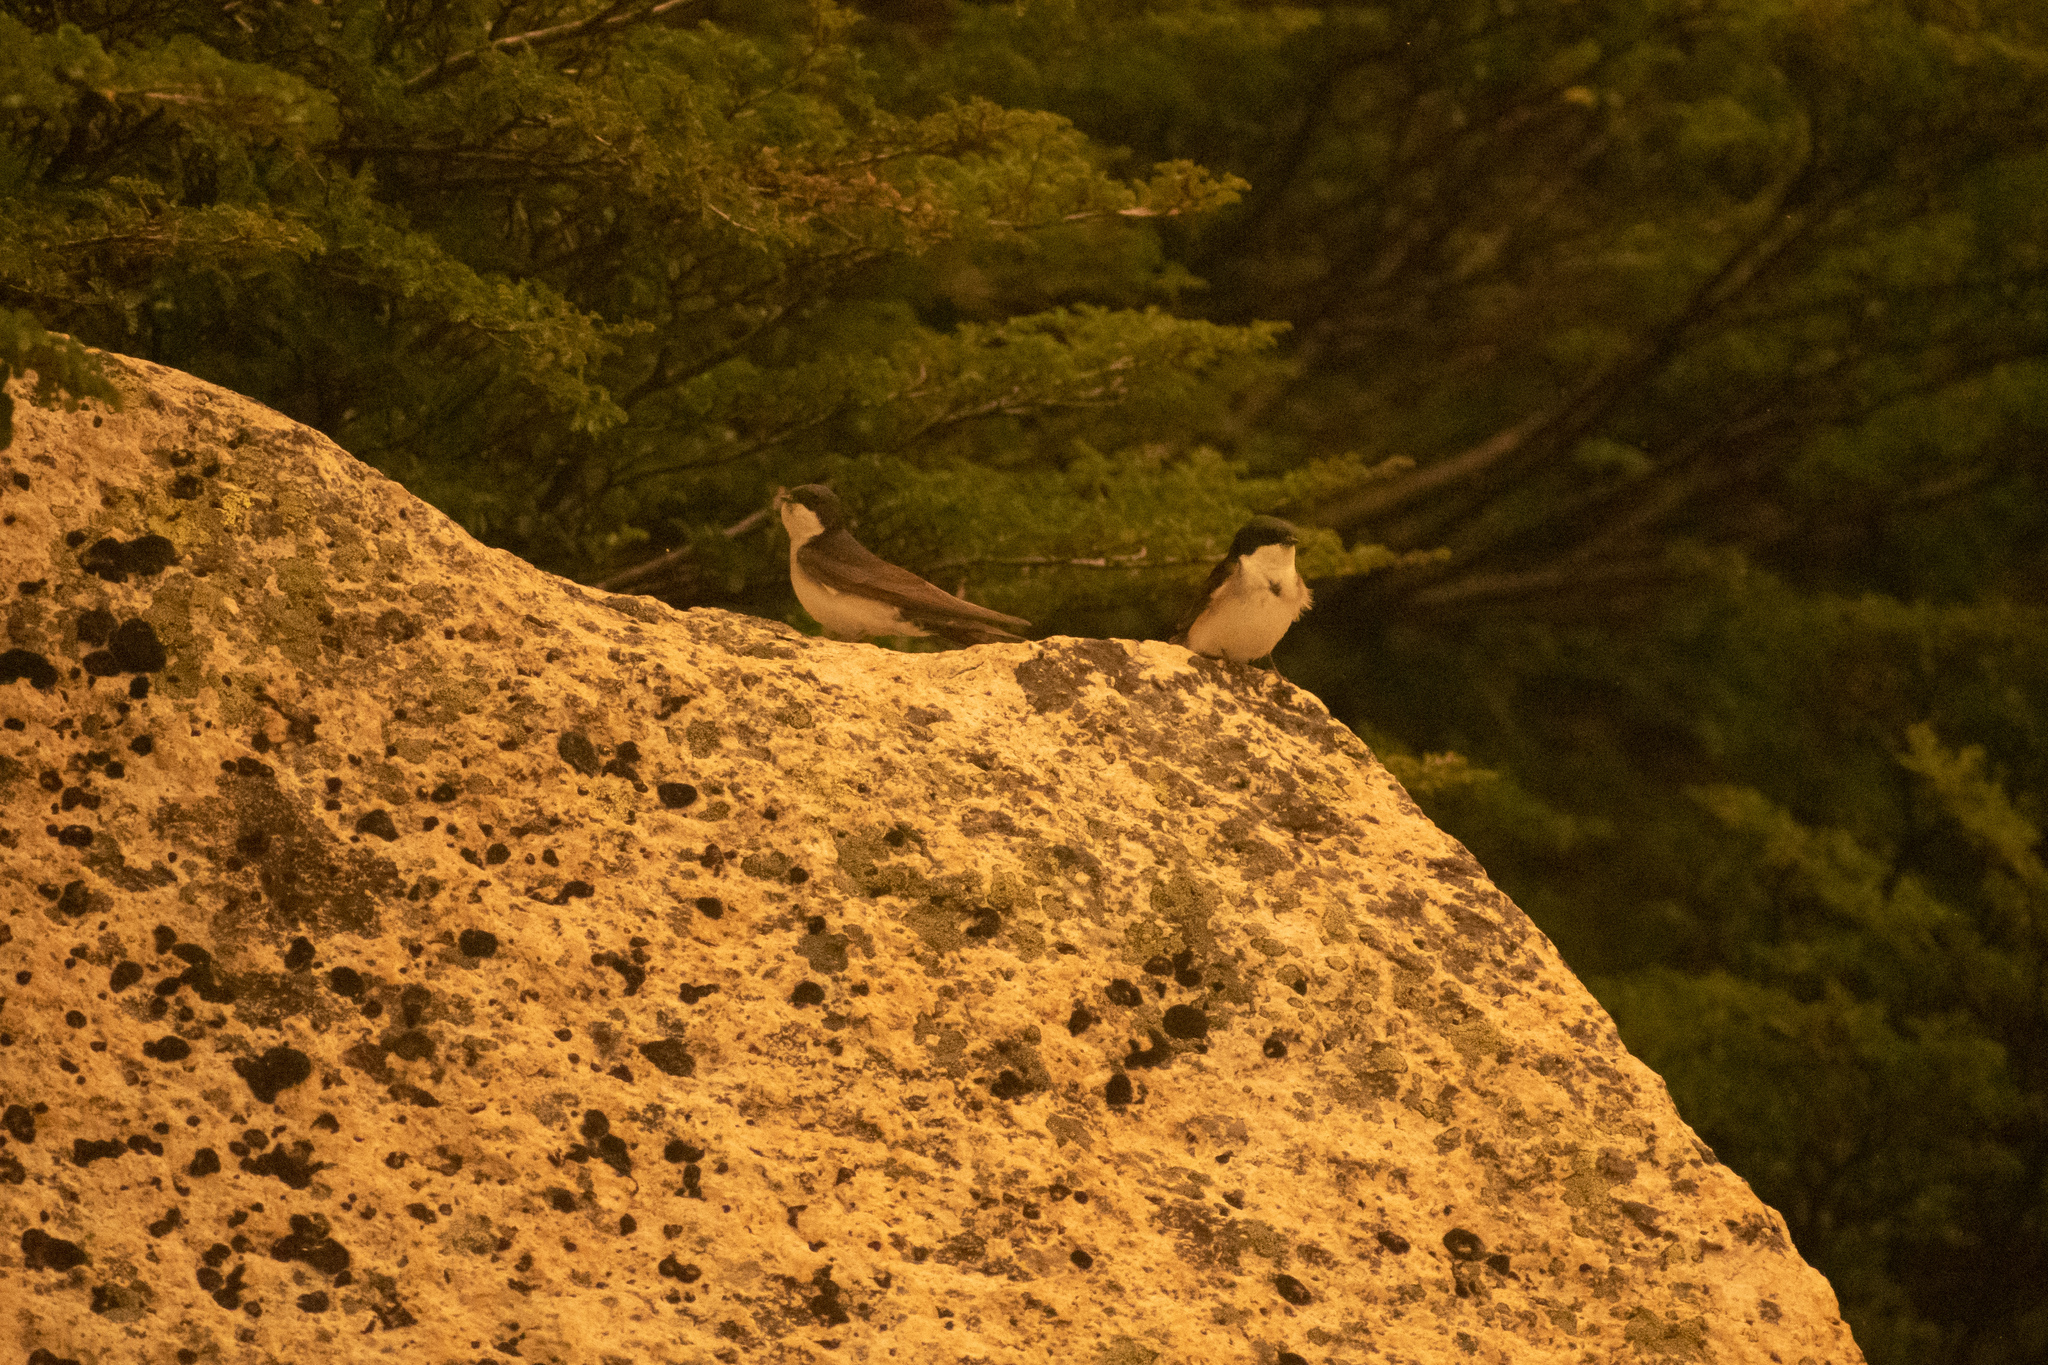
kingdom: Animalia
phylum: Chordata
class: Aves
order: Passeriformes
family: Hirundinidae
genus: Notiochelidon
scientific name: Notiochelidon cyanoleuca
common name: Blue-and-white swallow
